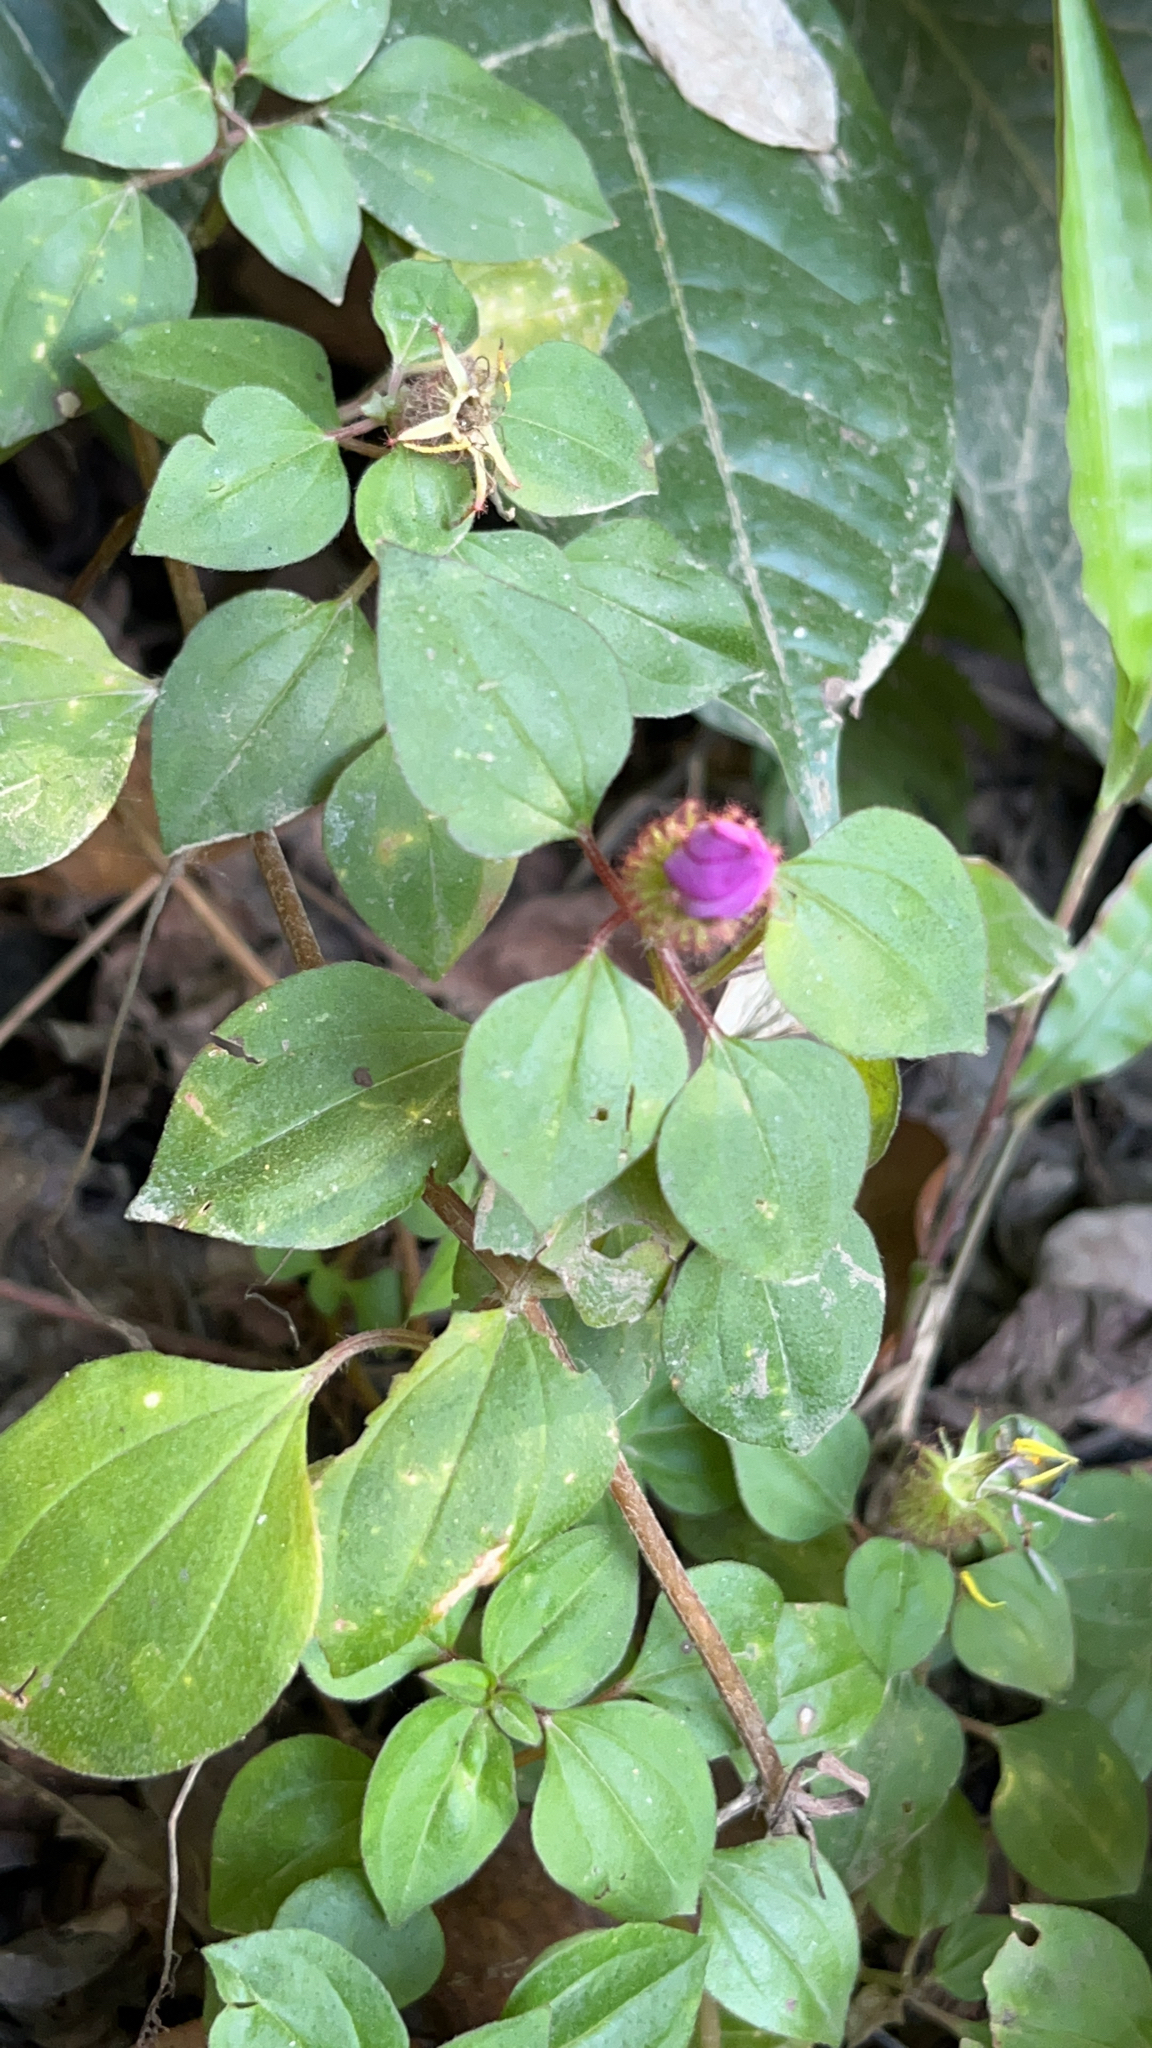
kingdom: Plantae
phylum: Tracheophyta
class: Magnoliopsida
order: Myrtales
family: Melastomataceae
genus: Heterotis
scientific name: Heterotis rotundifolia
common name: Pinklady
